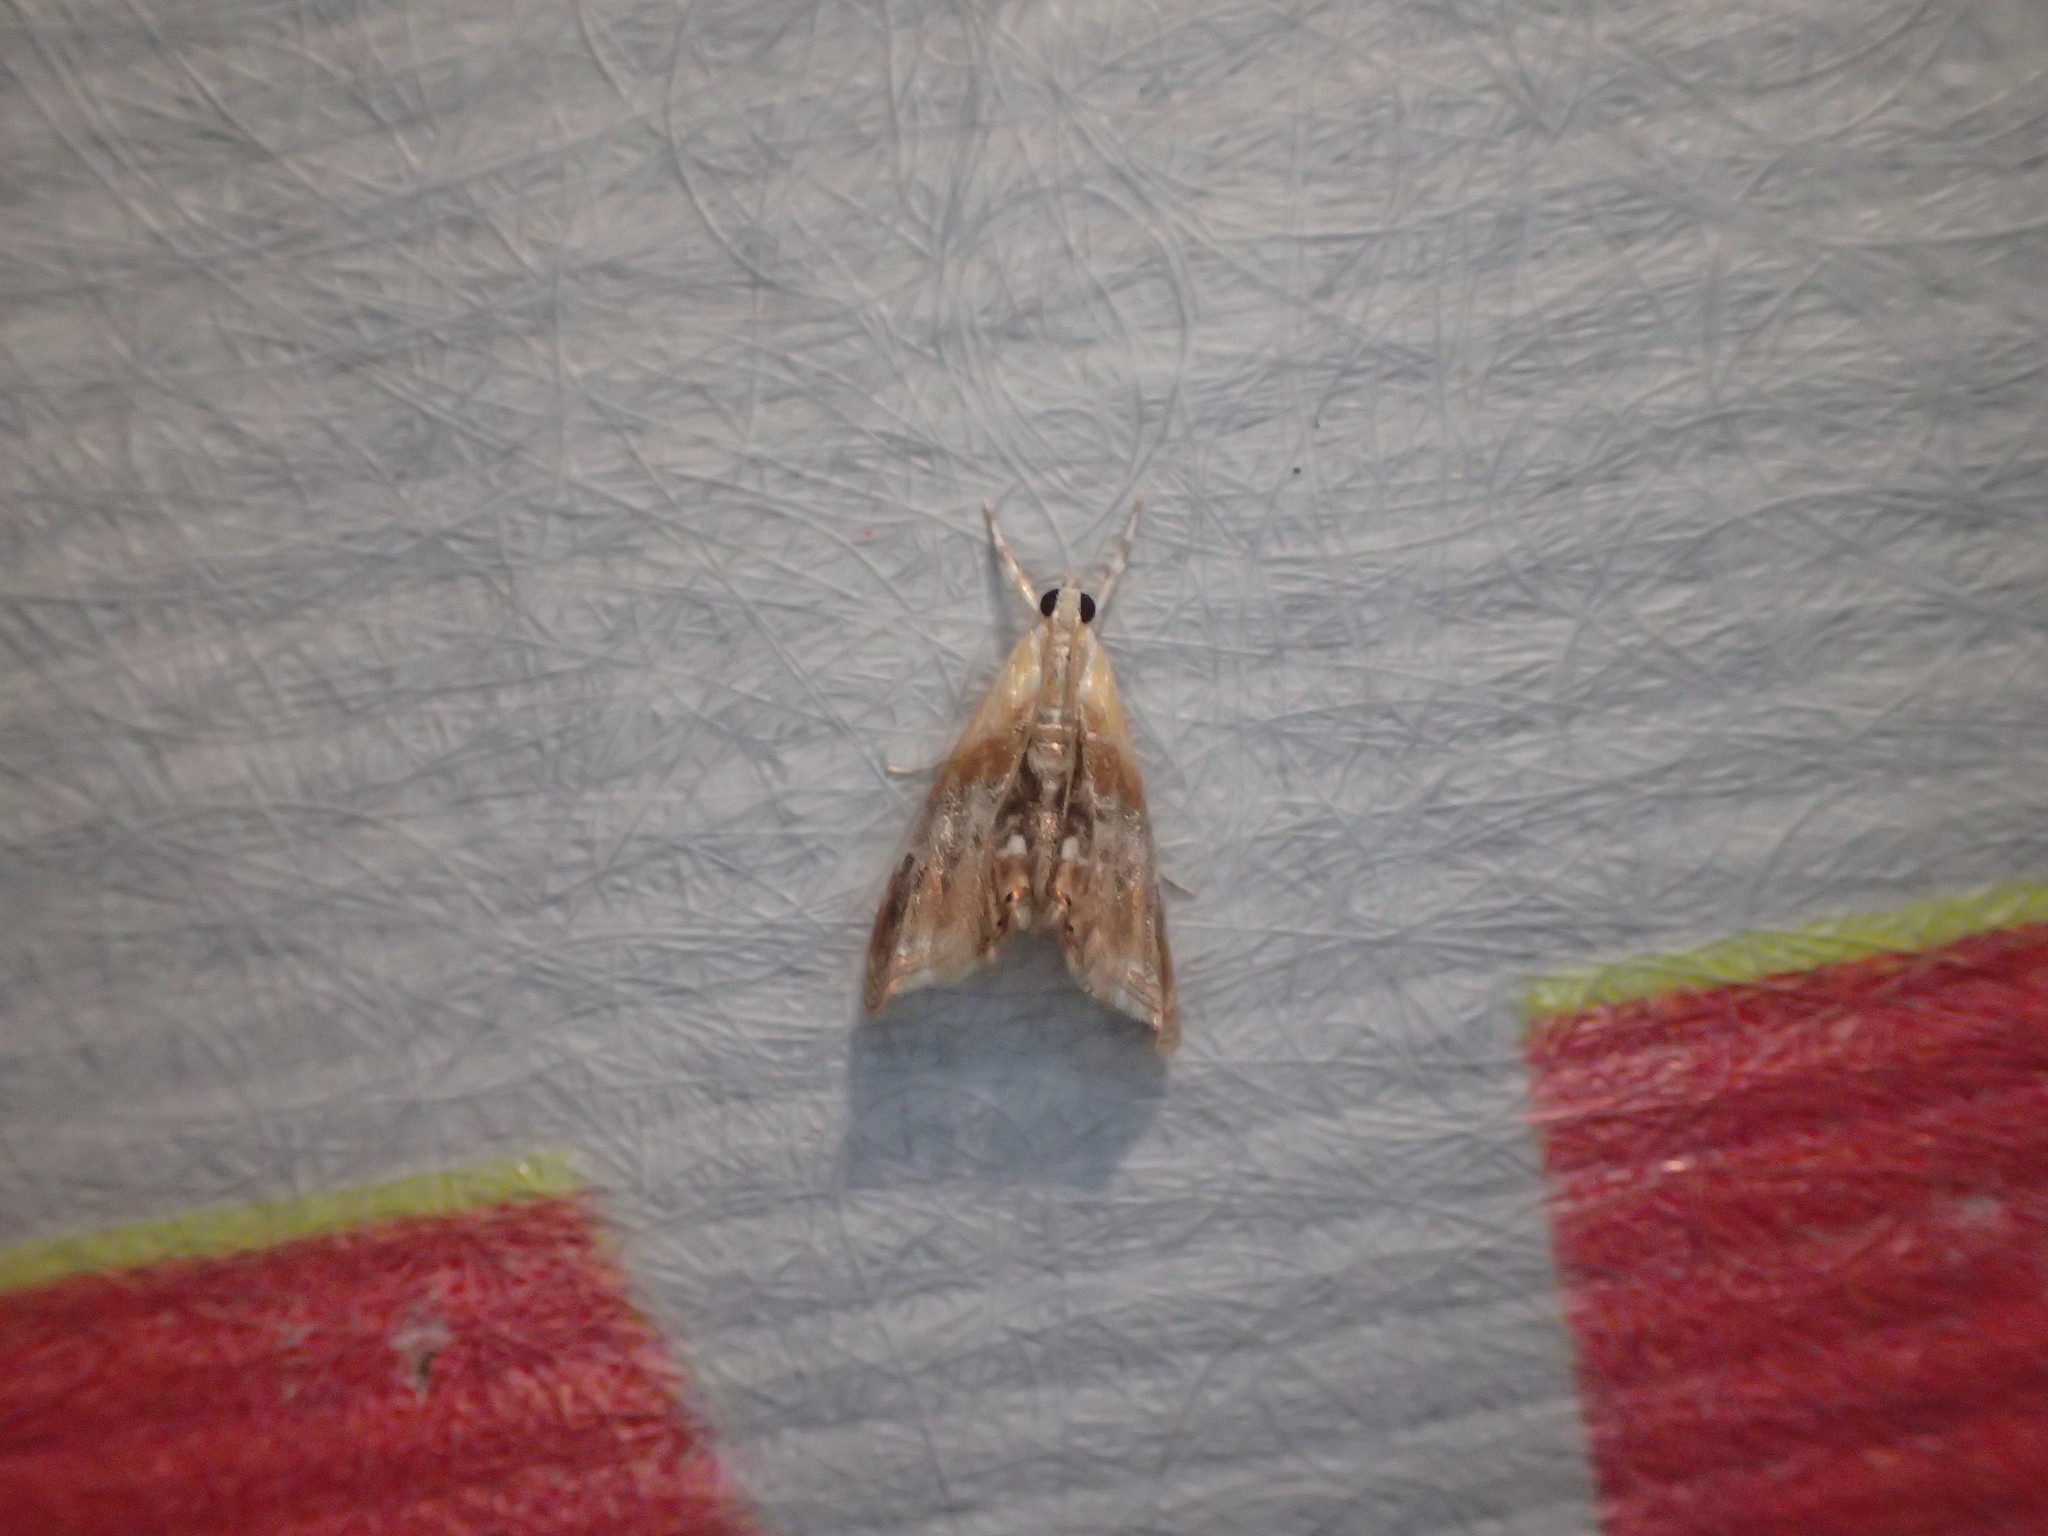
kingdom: Animalia
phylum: Arthropoda
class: Insecta
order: Lepidoptera
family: Crambidae
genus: Dicymolomia
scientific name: Dicymolomia julianalis
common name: Julia's dicymolomia moth
